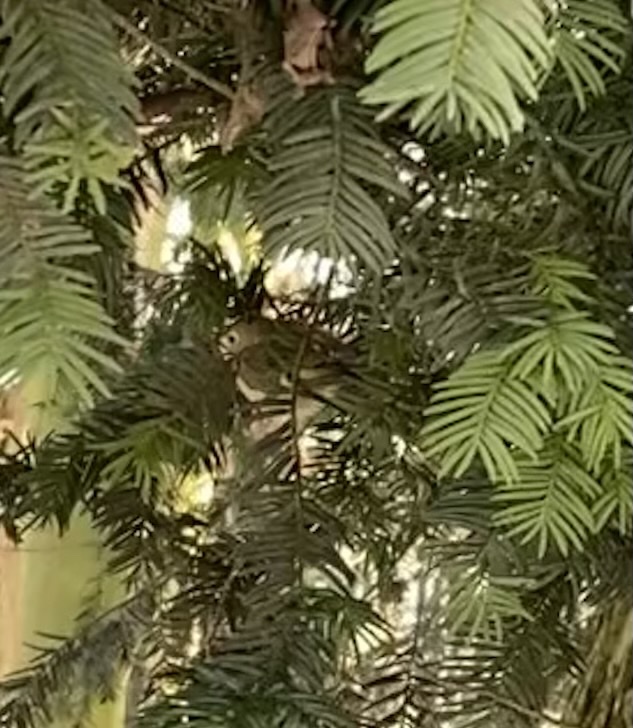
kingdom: Animalia
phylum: Chordata
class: Aves
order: Passeriformes
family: Regulidae
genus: Regulus
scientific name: Regulus regulus
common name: Goldcrest
